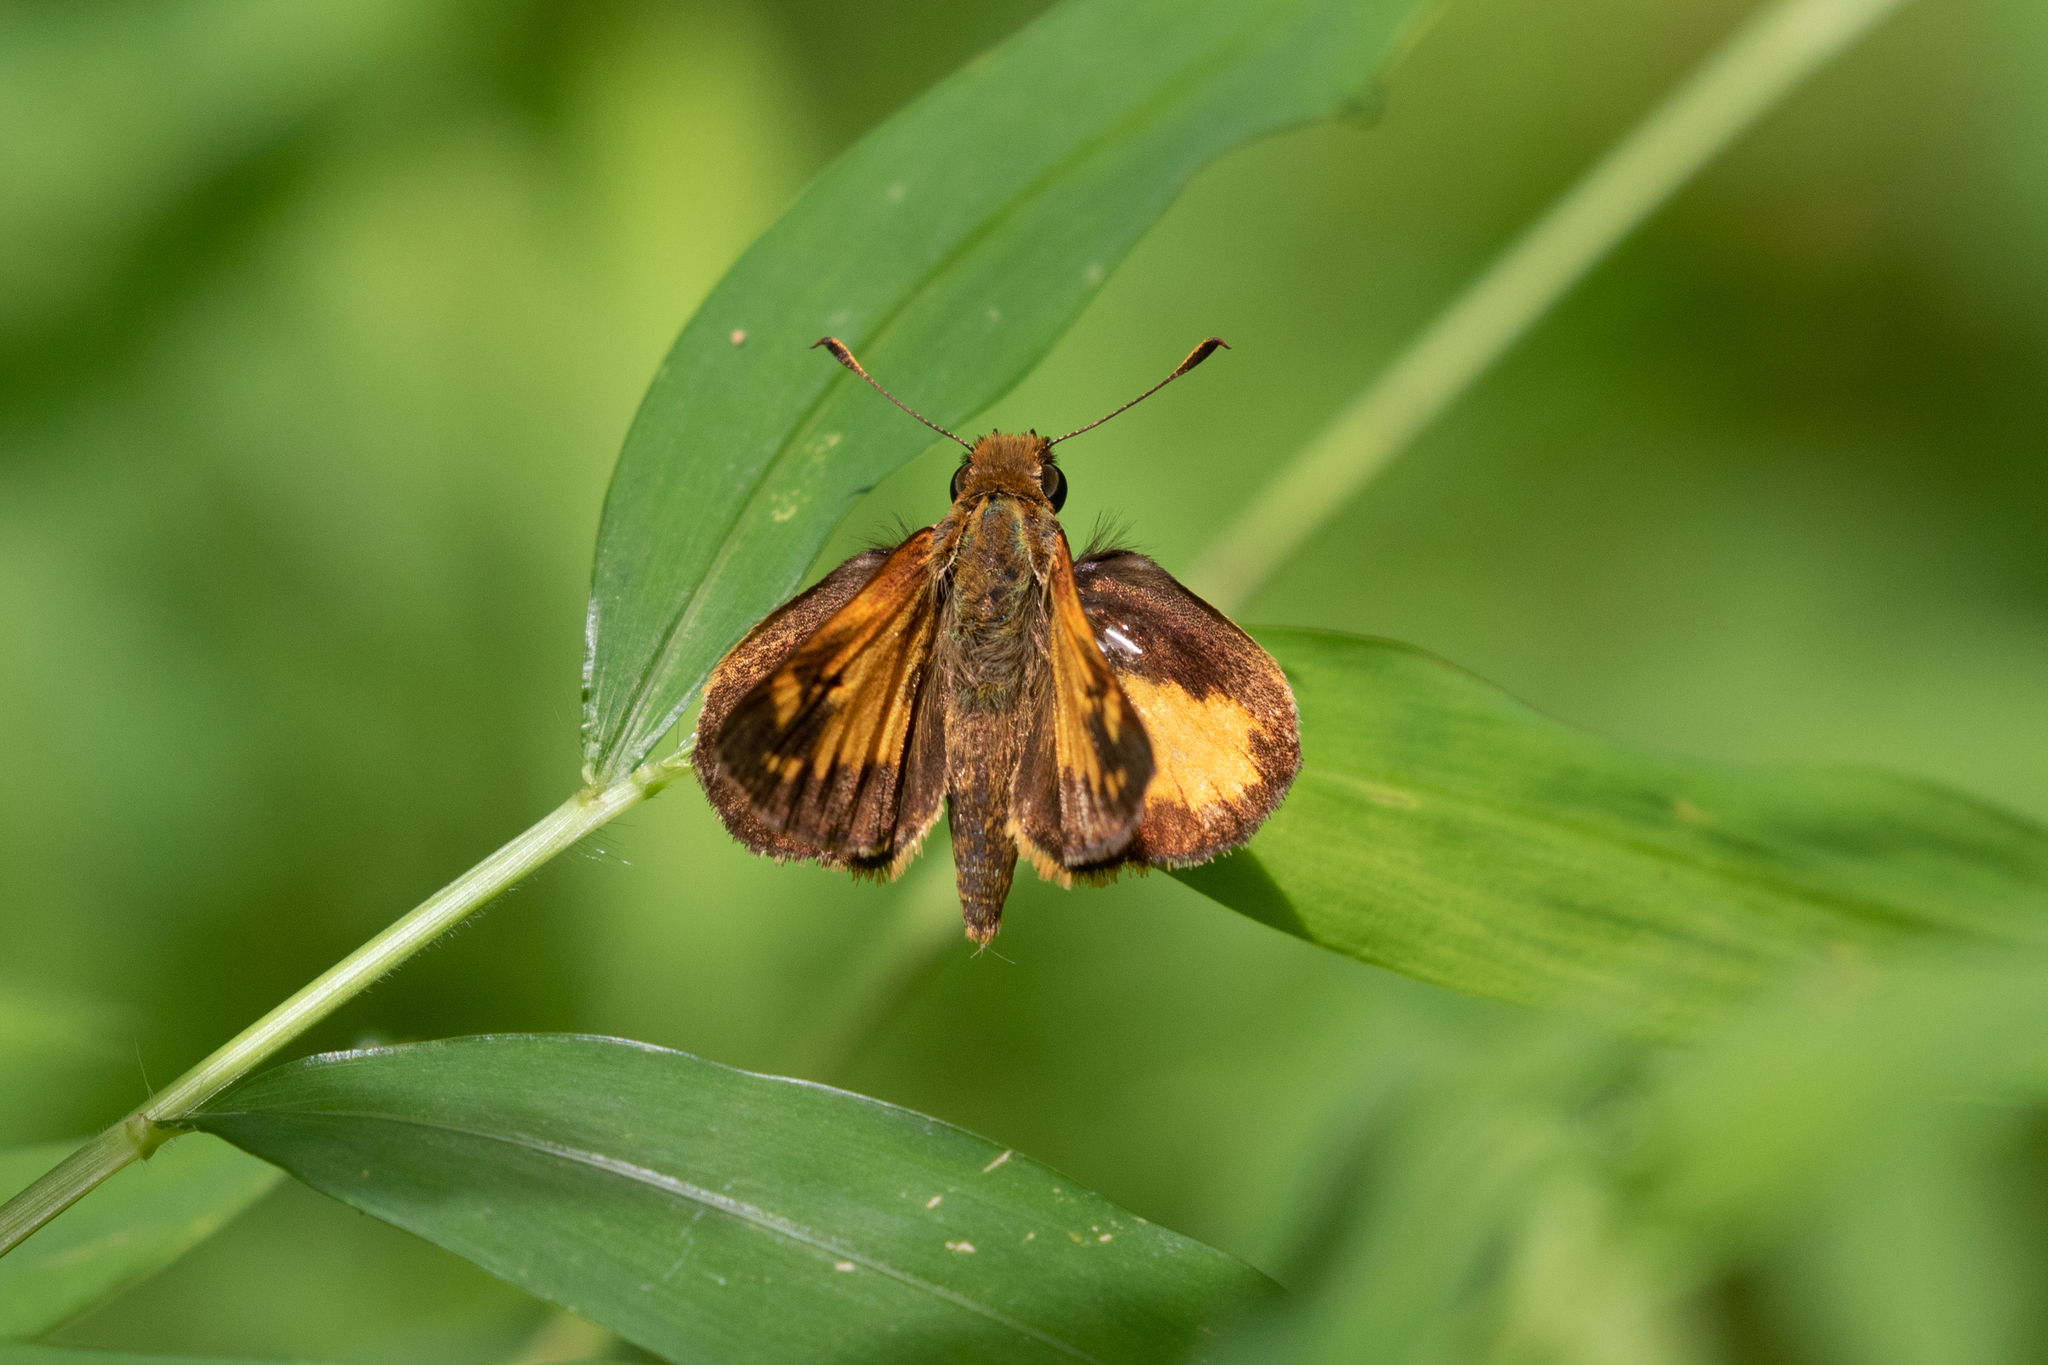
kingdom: Animalia
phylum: Arthropoda
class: Insecta
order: Lepidoptera
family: Hesperiidae
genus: Lon
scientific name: Lon zabulon
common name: Zabulon skipper
